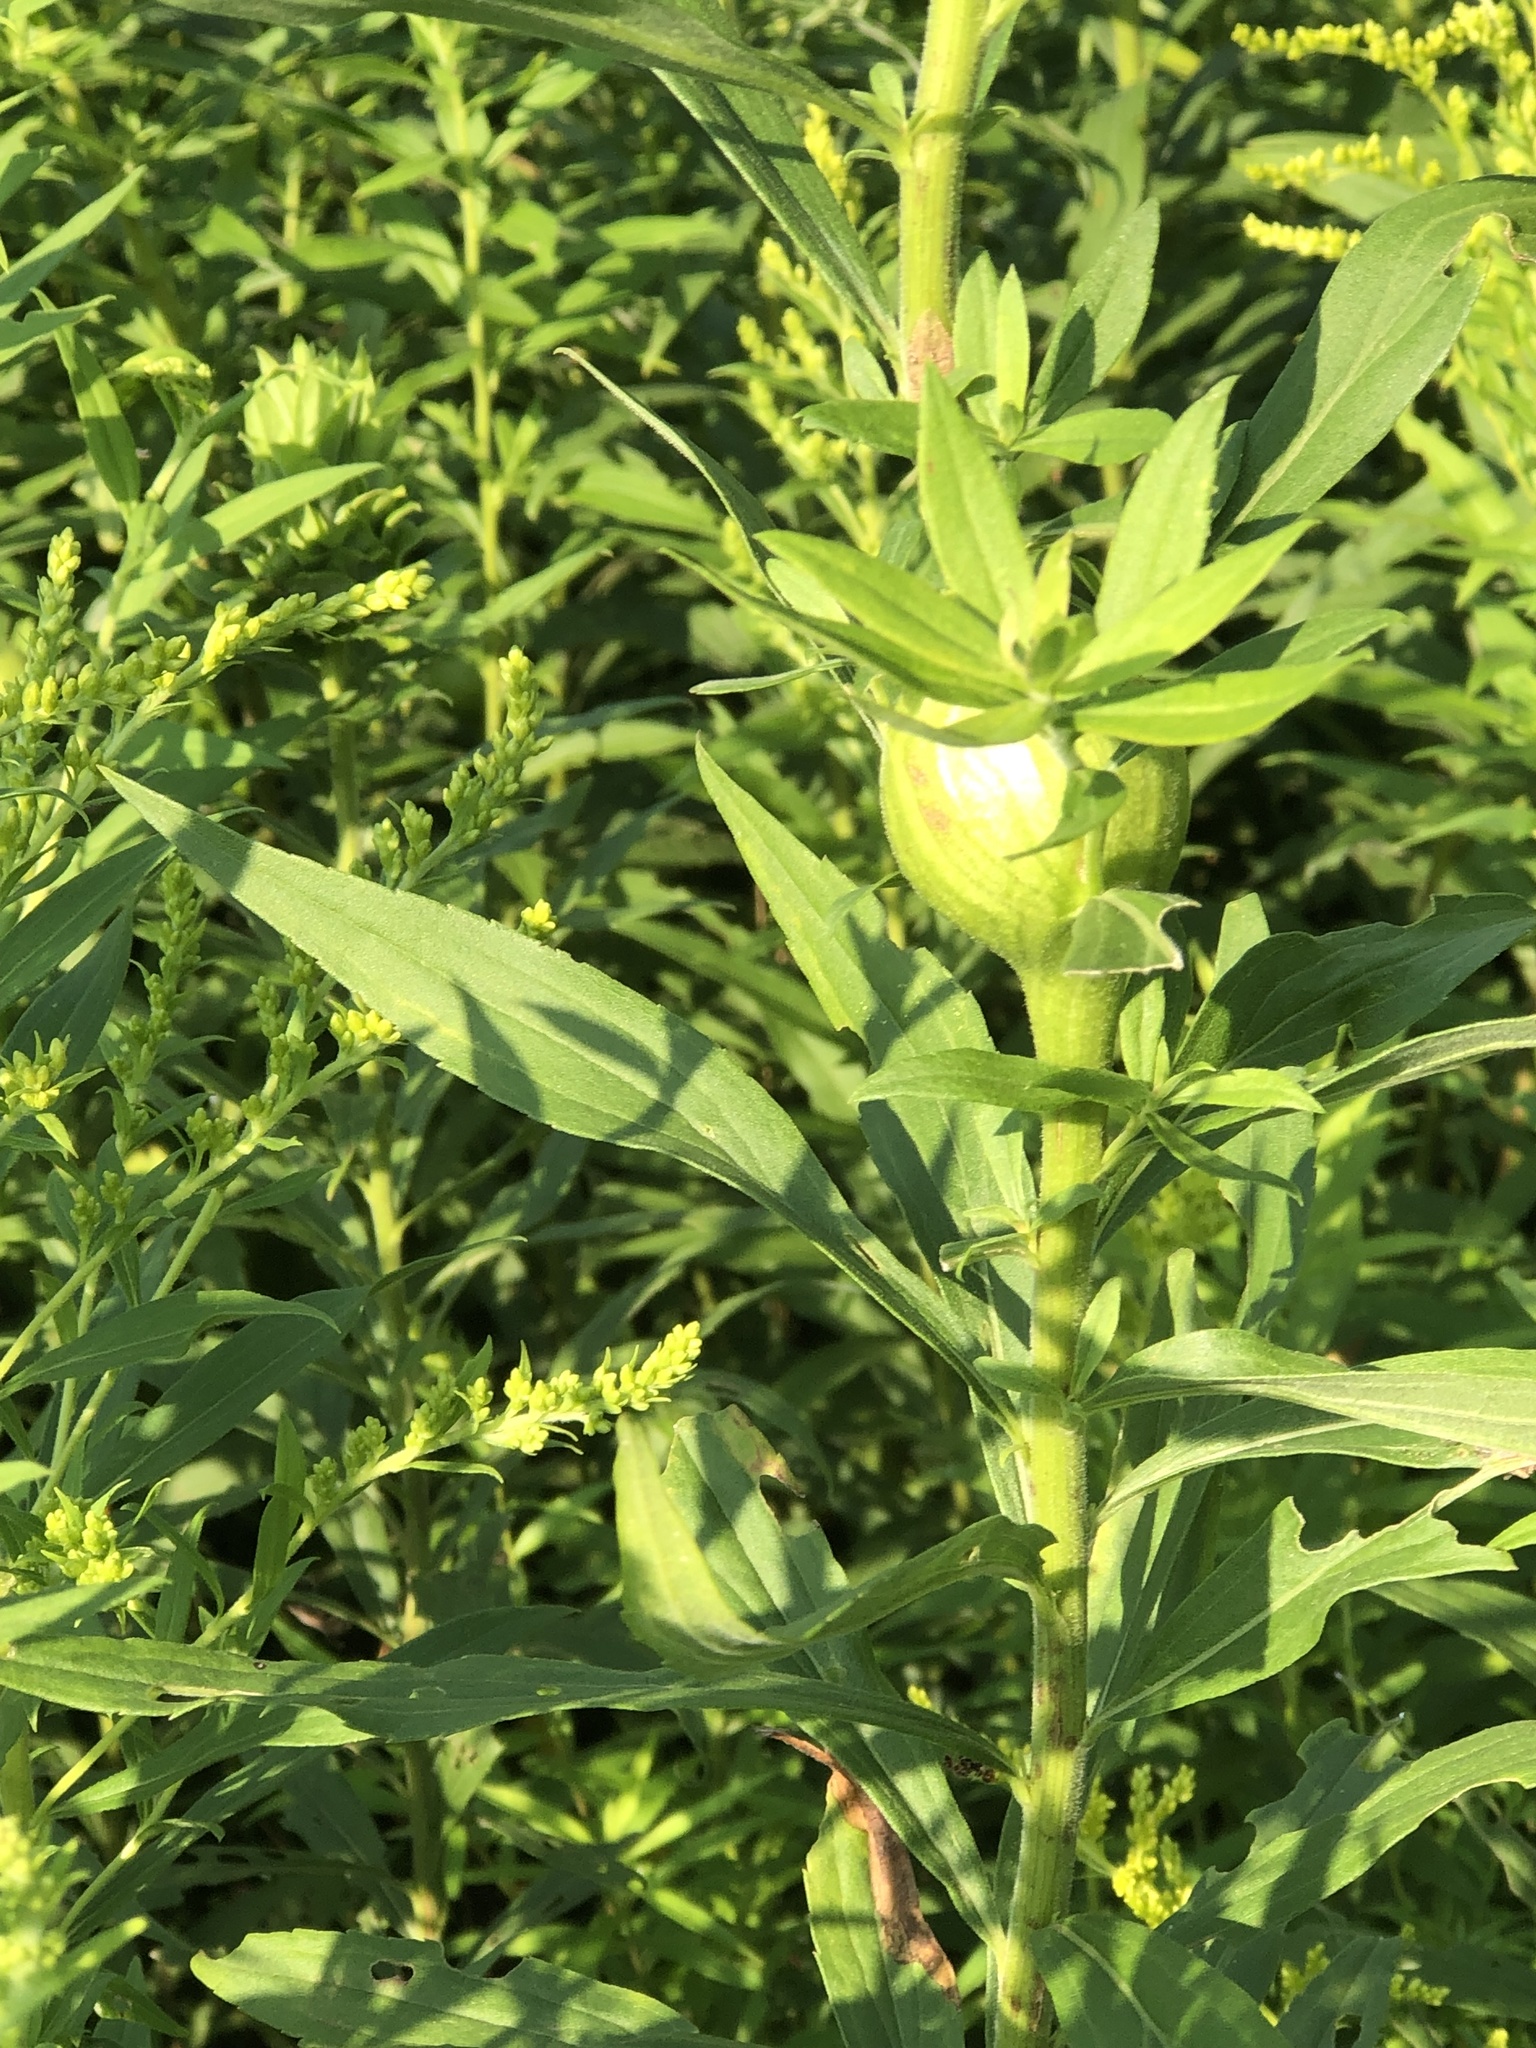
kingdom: Animalia
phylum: Arthropoda
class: Insecta
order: Diptera
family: Tephritidae
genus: Eurosta
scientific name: Eurosta solidaginis
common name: Goldenrod gall fly
